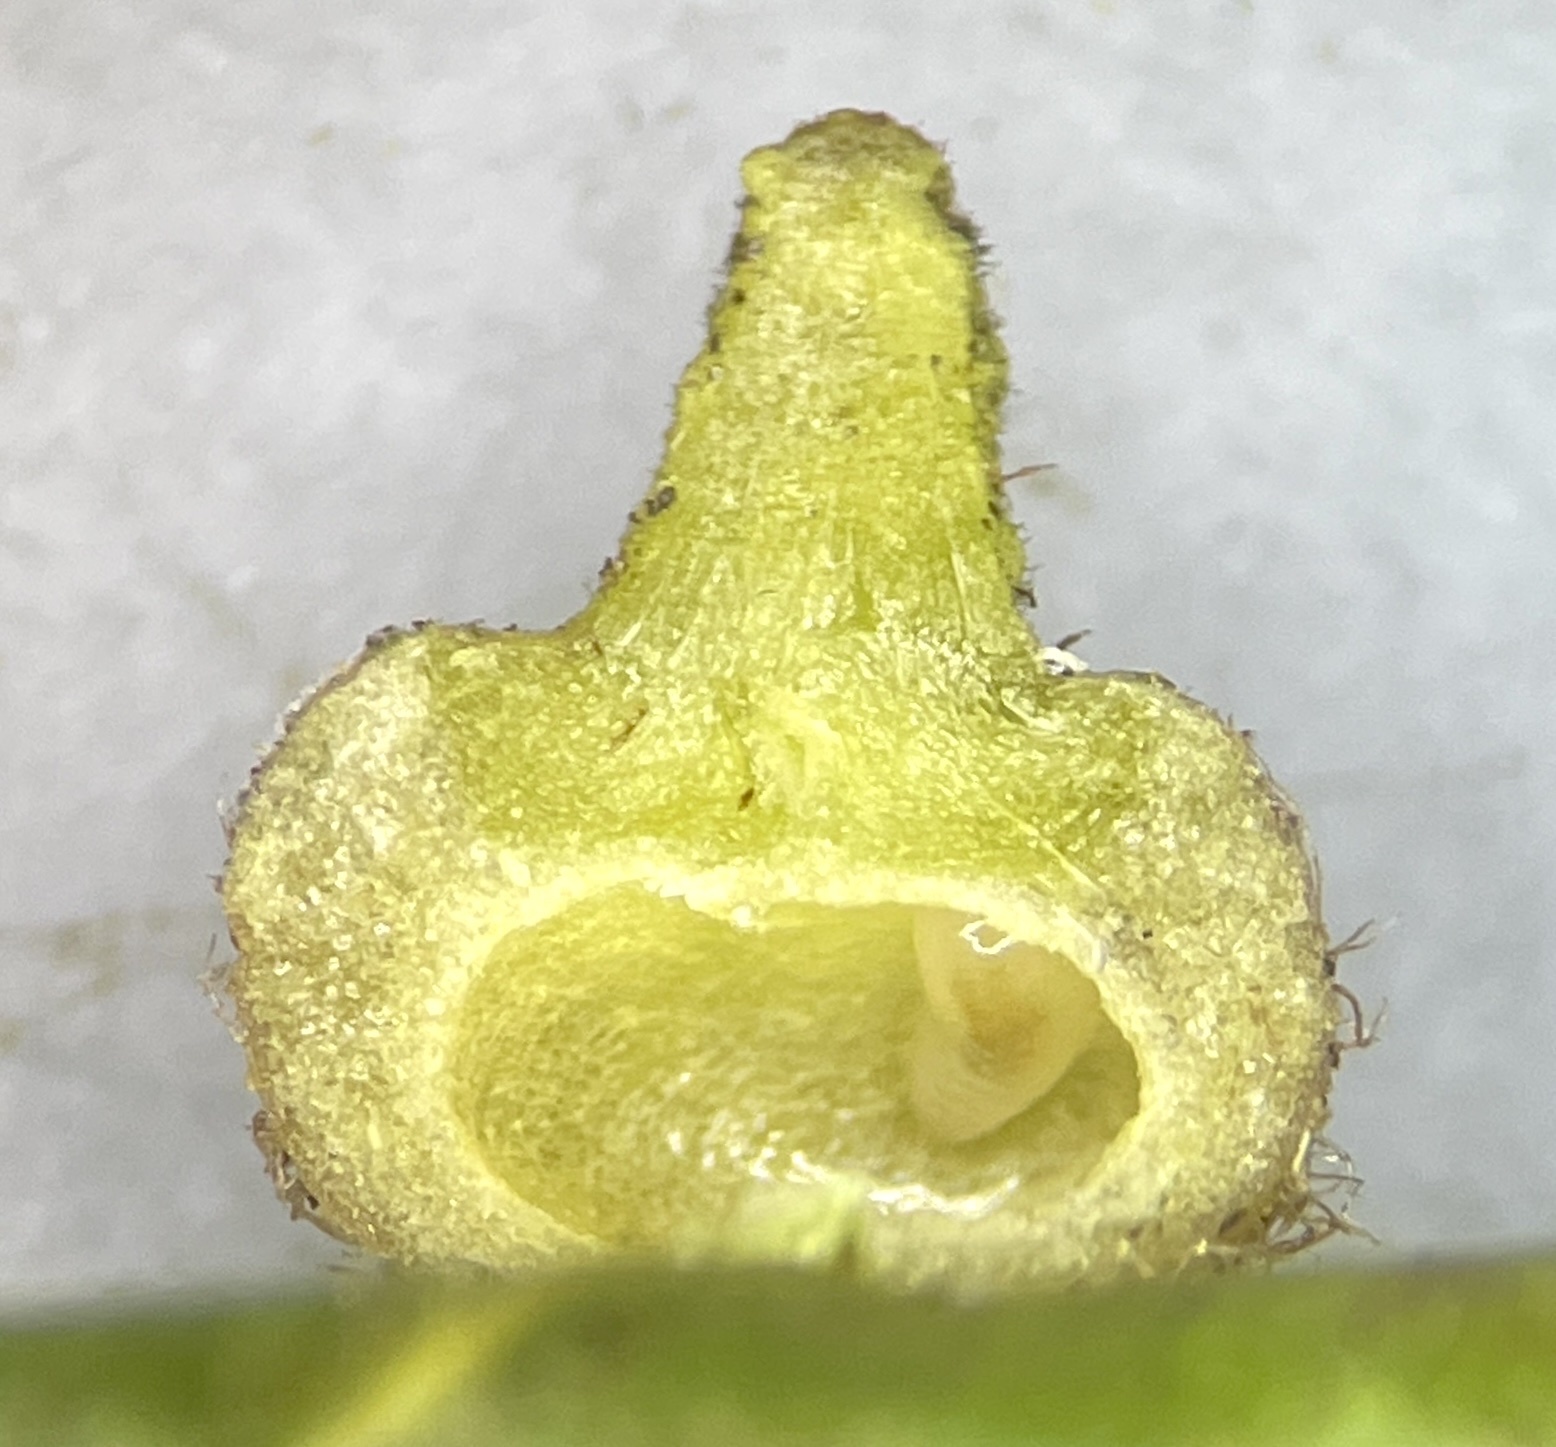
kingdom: Animalia
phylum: Arthropoda
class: Insecta
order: Diptera
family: Cecidomyiidae
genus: Caryomyia
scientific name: Caryomyia turbanella
